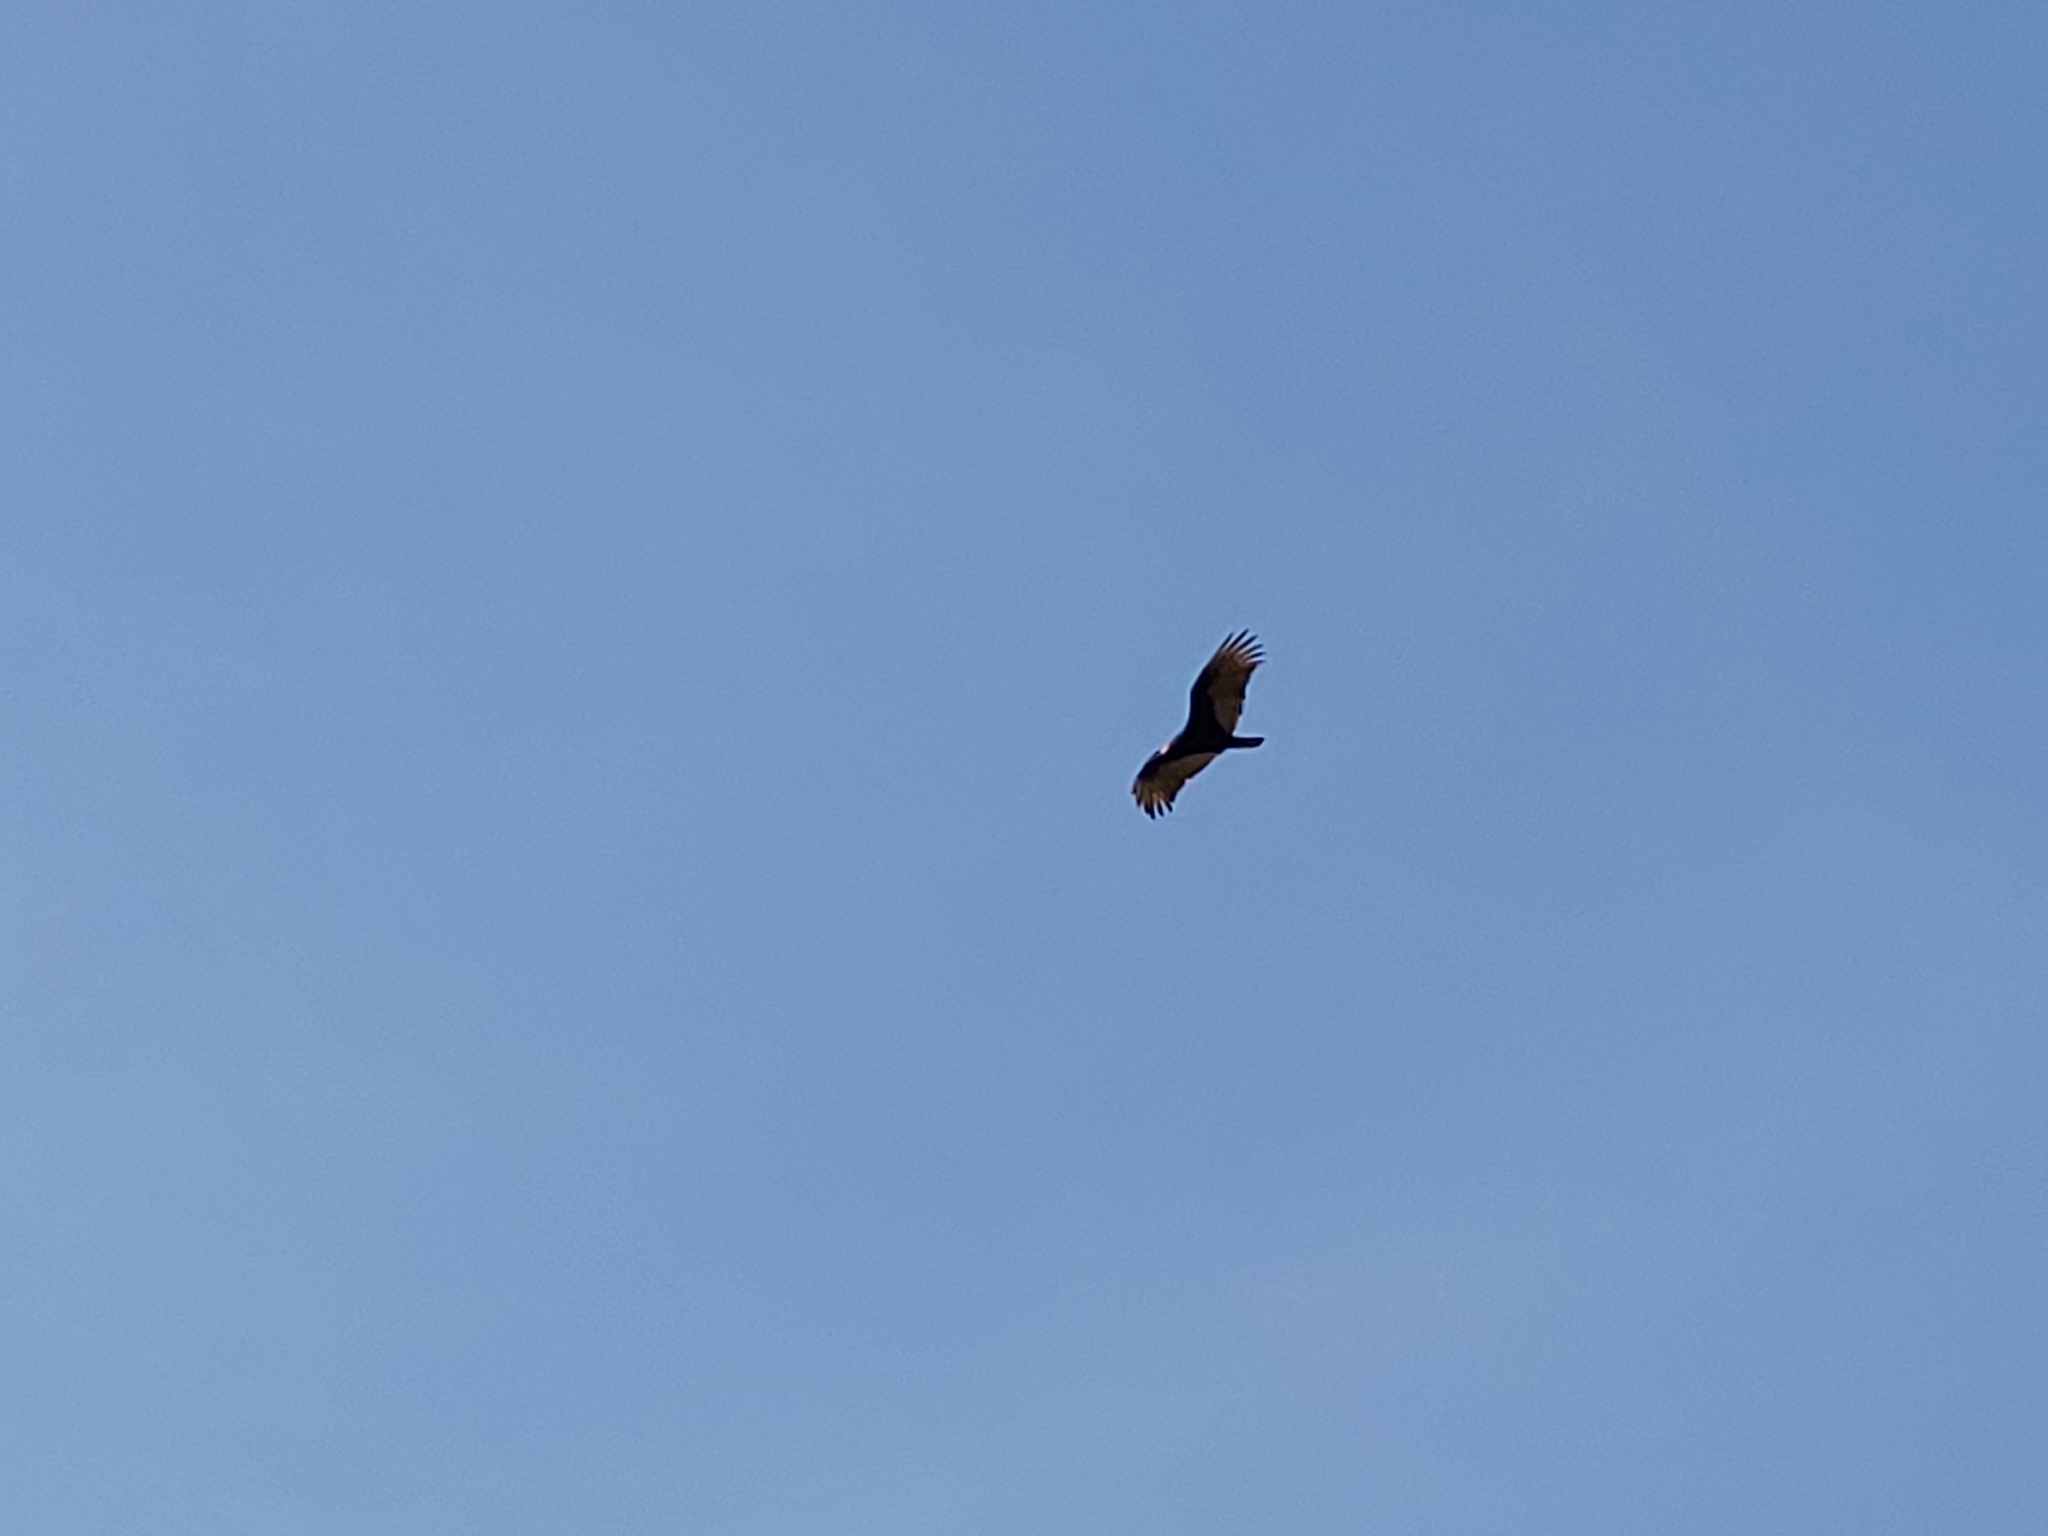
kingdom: Animalia
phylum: Chordata
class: Aves
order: Accipitriformes
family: Cathartidae
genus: Cathartes
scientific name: Cathartes aura
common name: Turkey vulture
